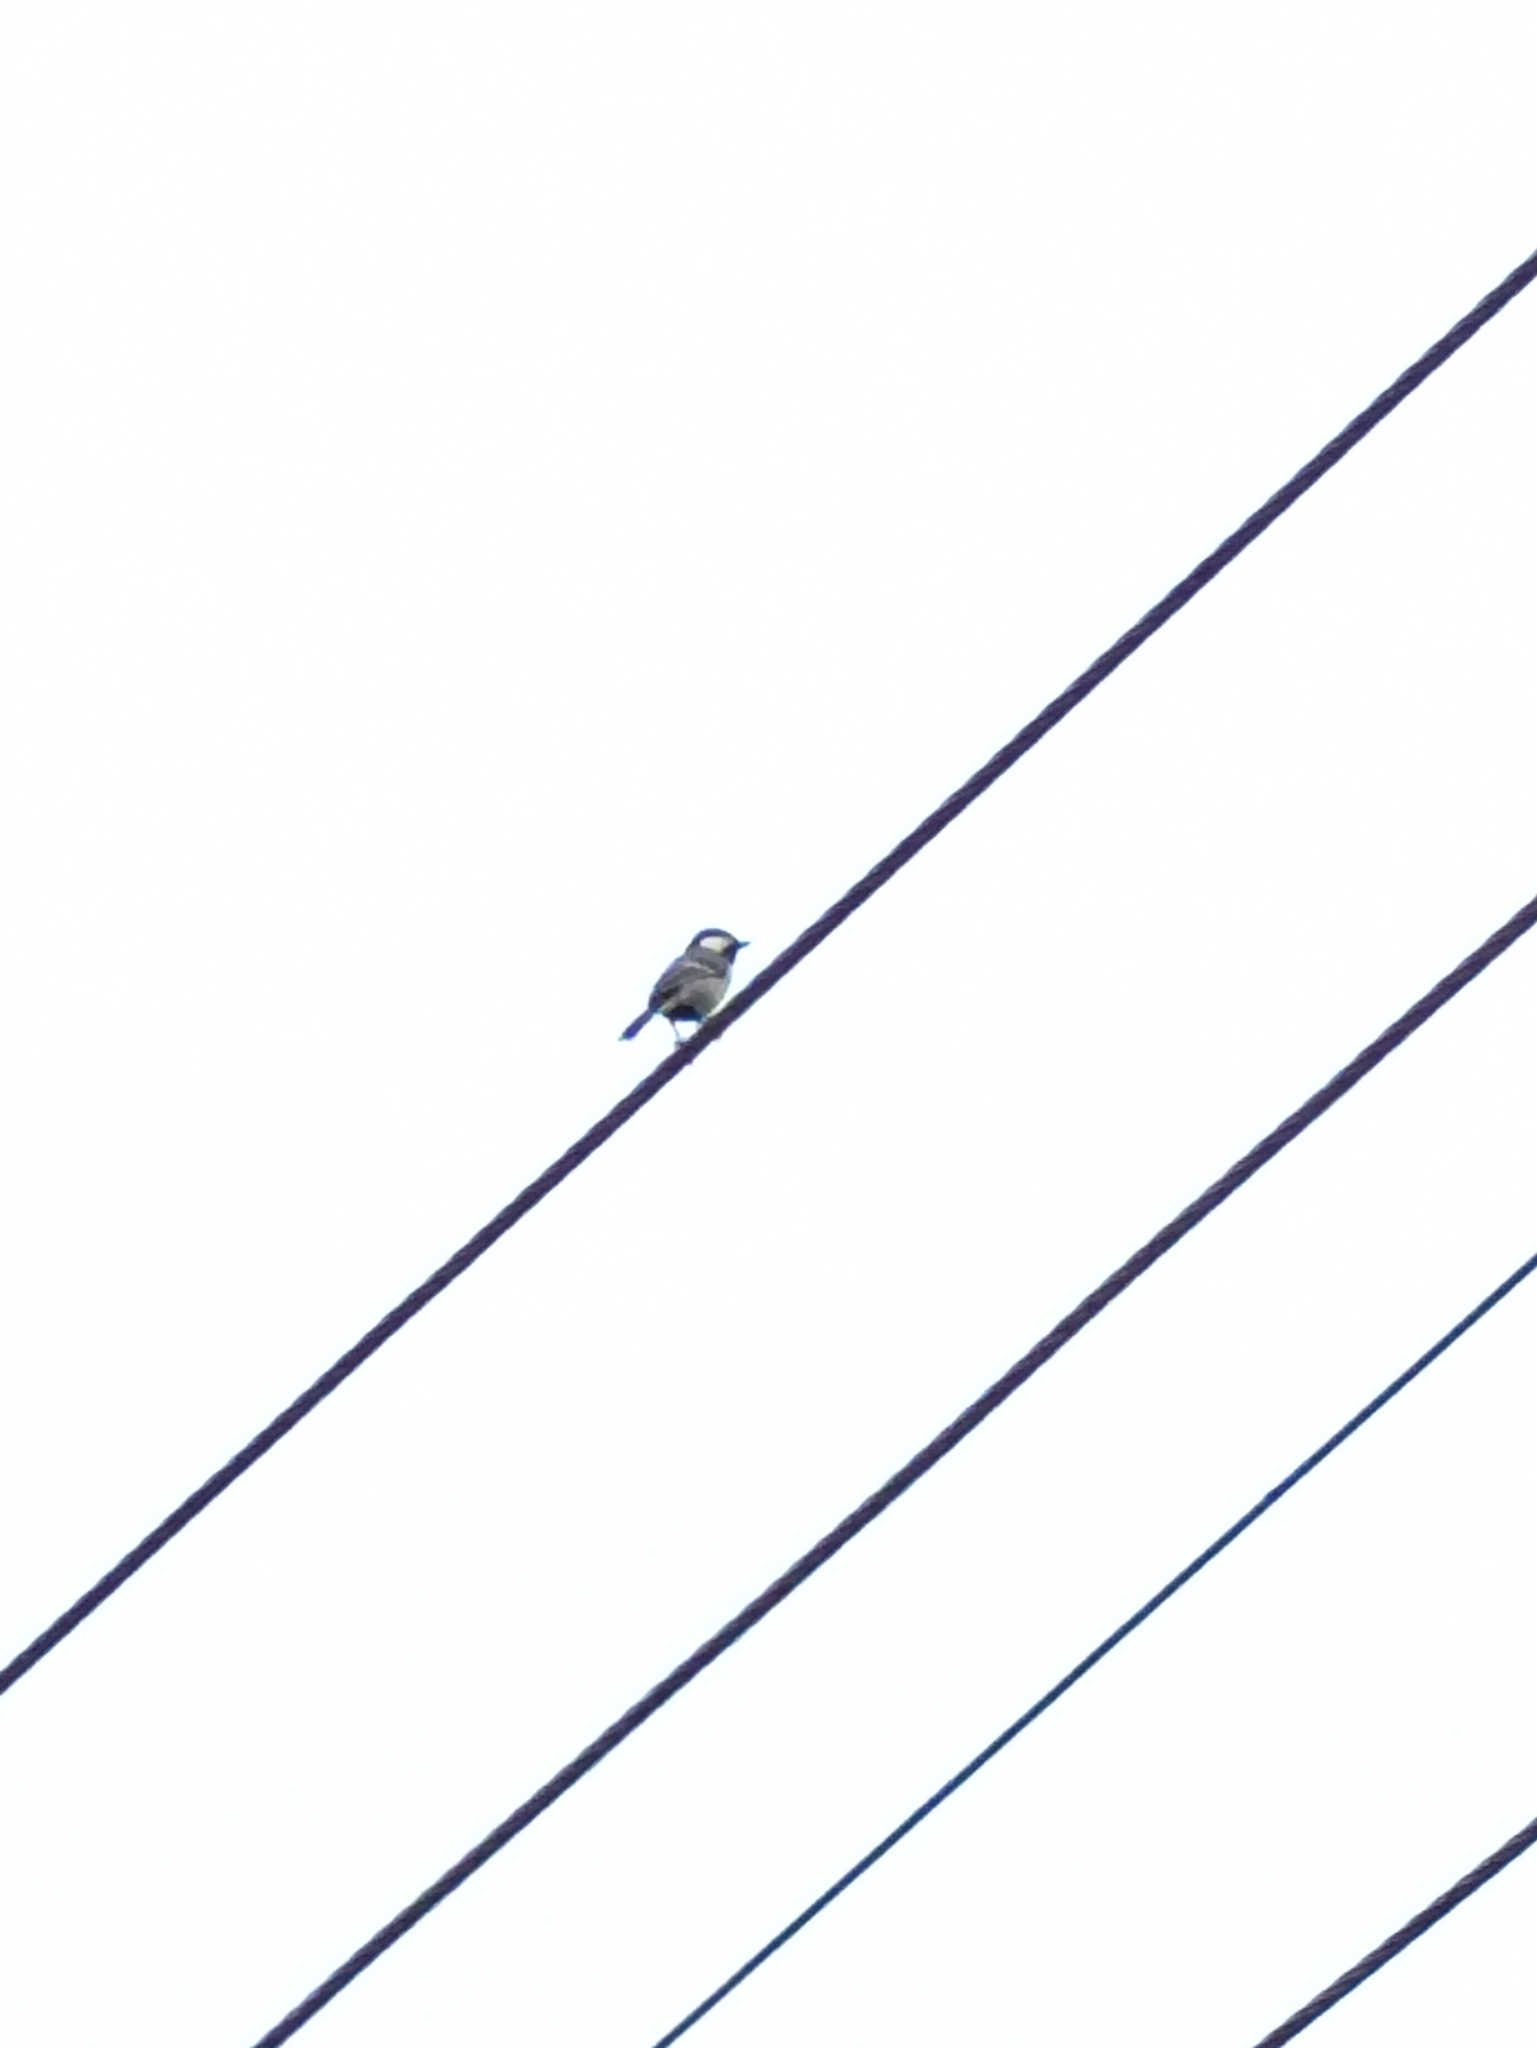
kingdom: Animalia
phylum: Chordata
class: Aves
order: Passeriformes
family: Paridae
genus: Parus
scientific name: Parus cinereus
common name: Cinereous tit
